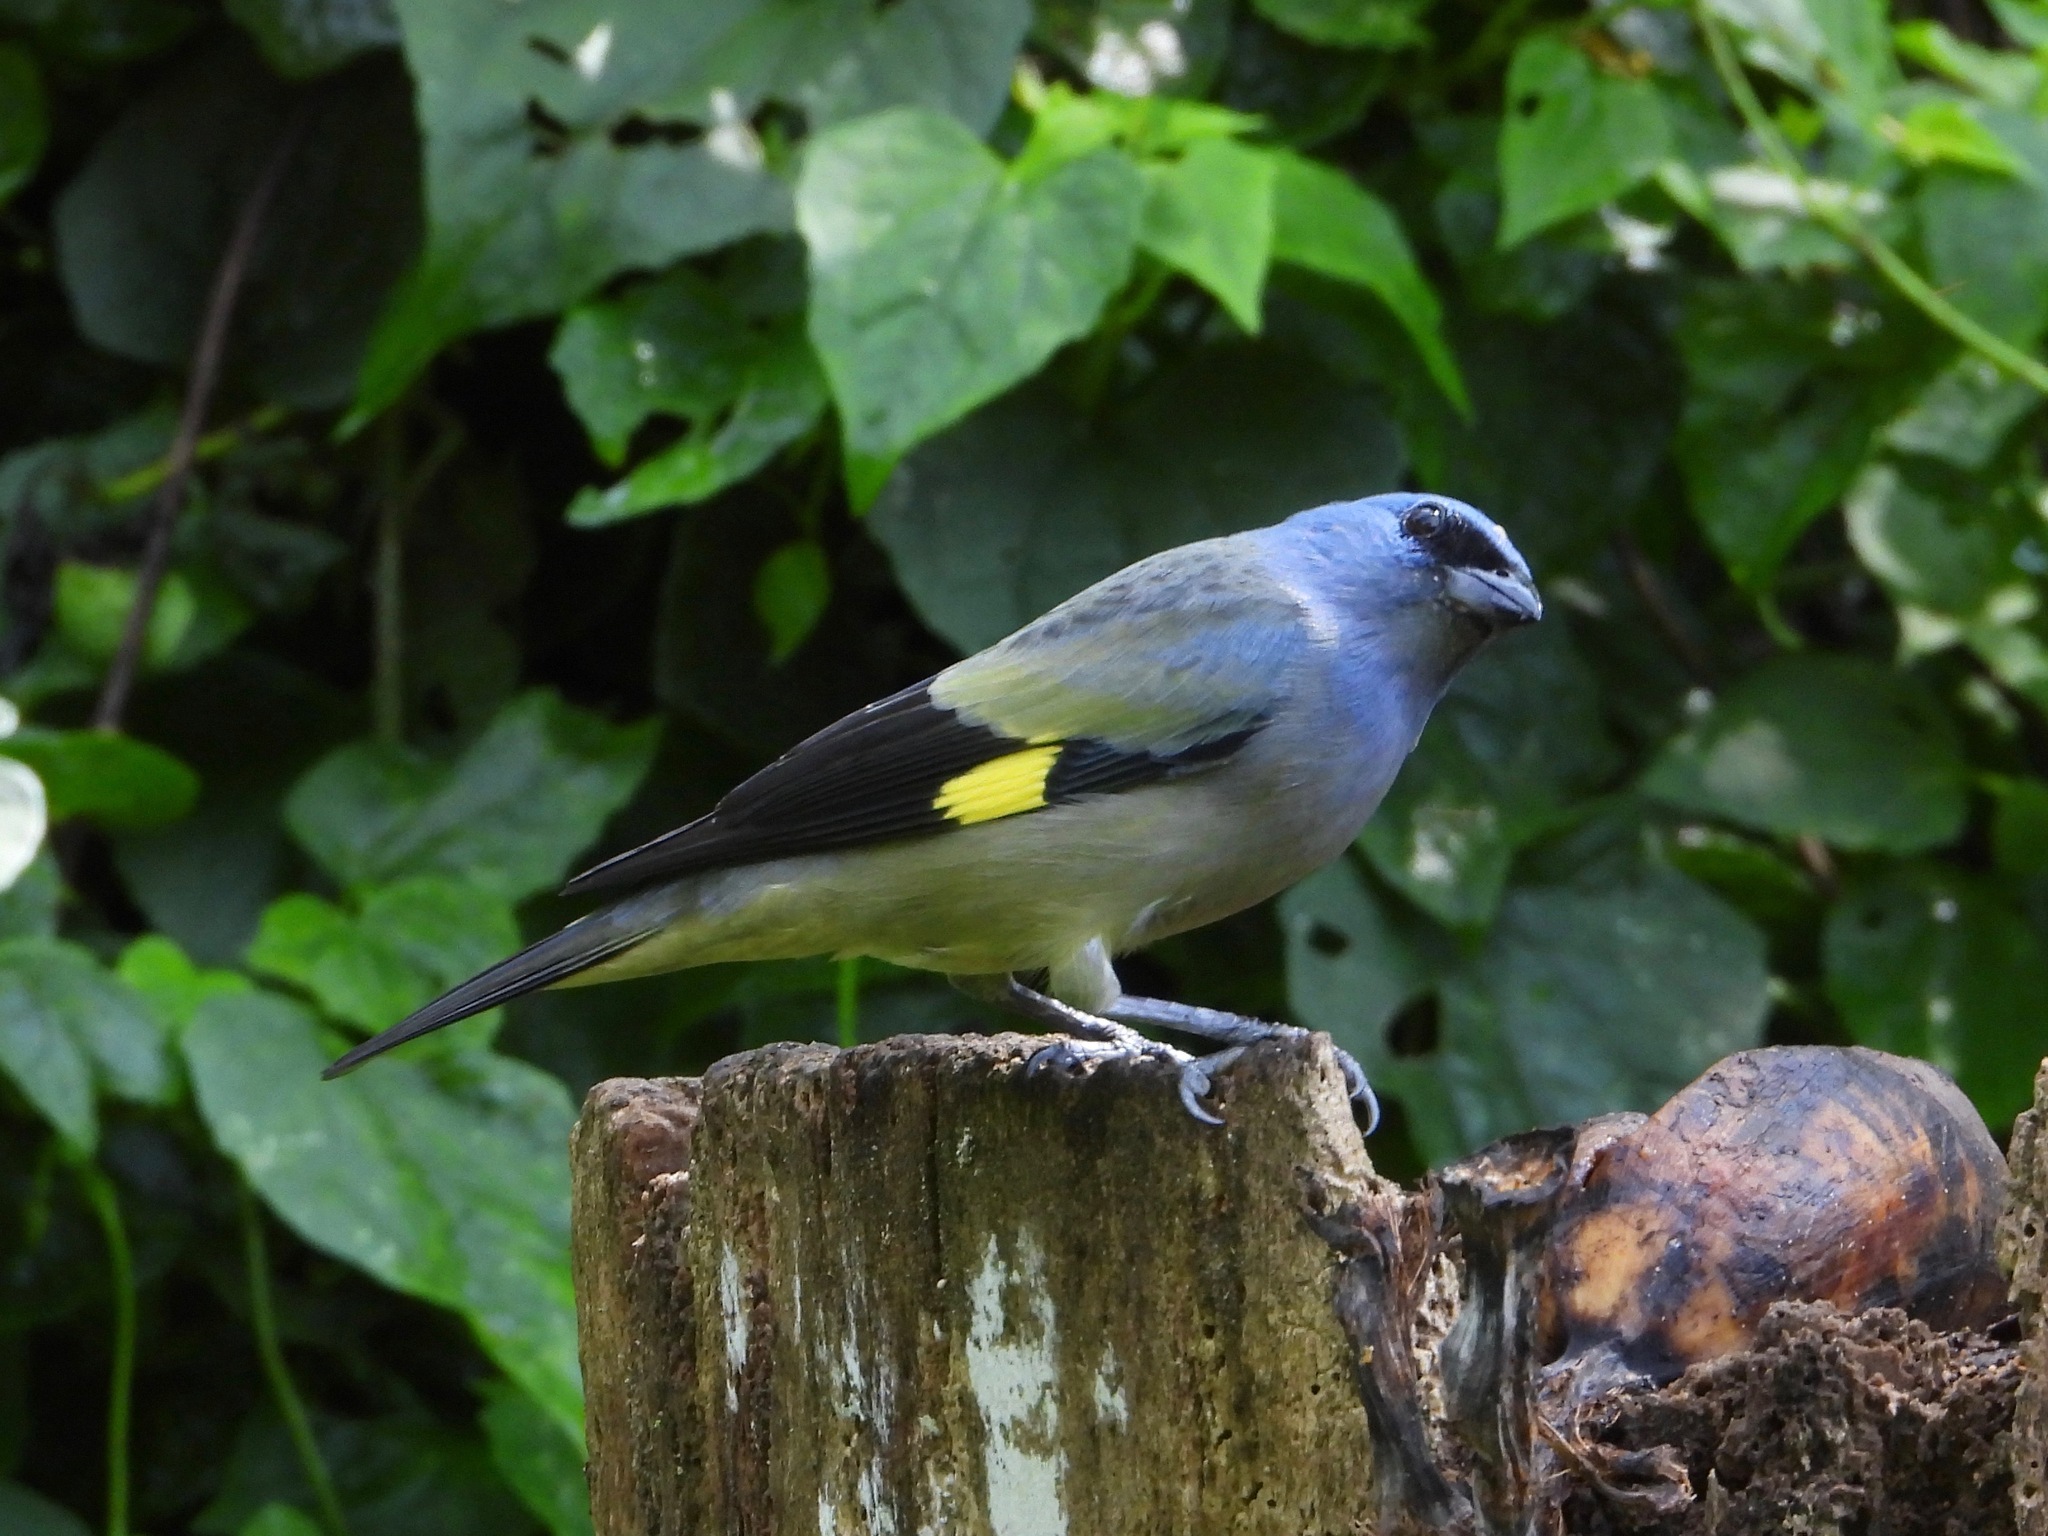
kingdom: Animalia
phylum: Chordata
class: Aves
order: Passeriformes
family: Thraupidae
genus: Thraupis
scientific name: Thraupis abbas
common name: Yellow-winged tanager
